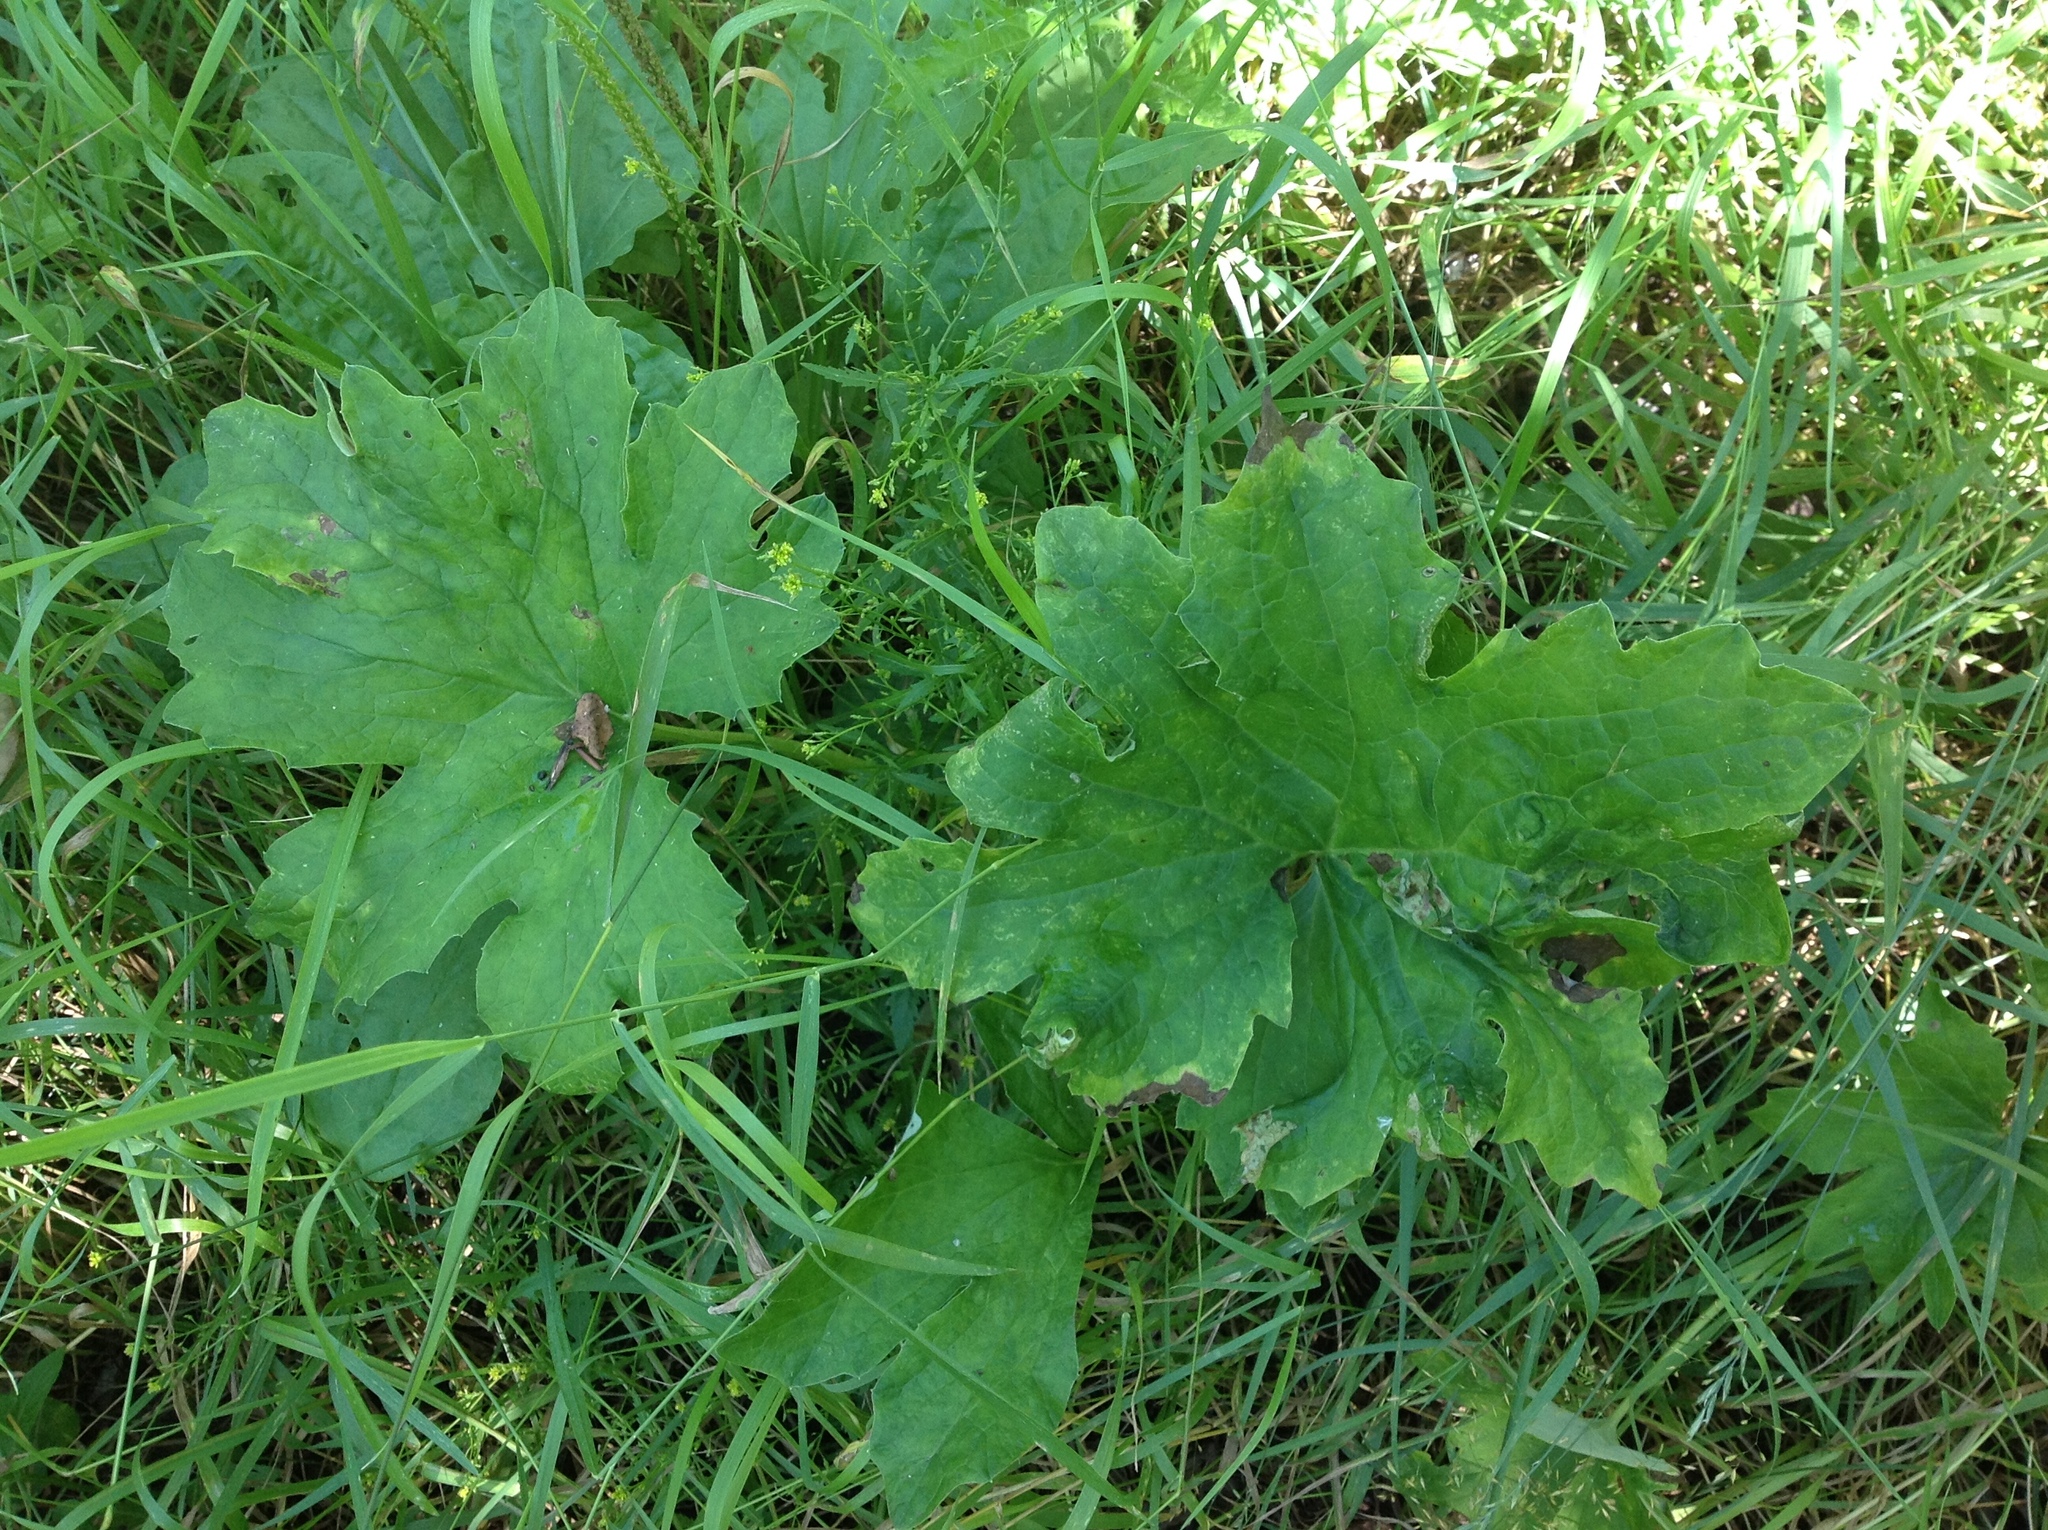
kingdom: Plantae
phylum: Tracheophyta
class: Magnoliopsida
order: Asterales
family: Asteraceae
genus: Petasites
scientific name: Petasites frigidus
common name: Arctic butterbur
